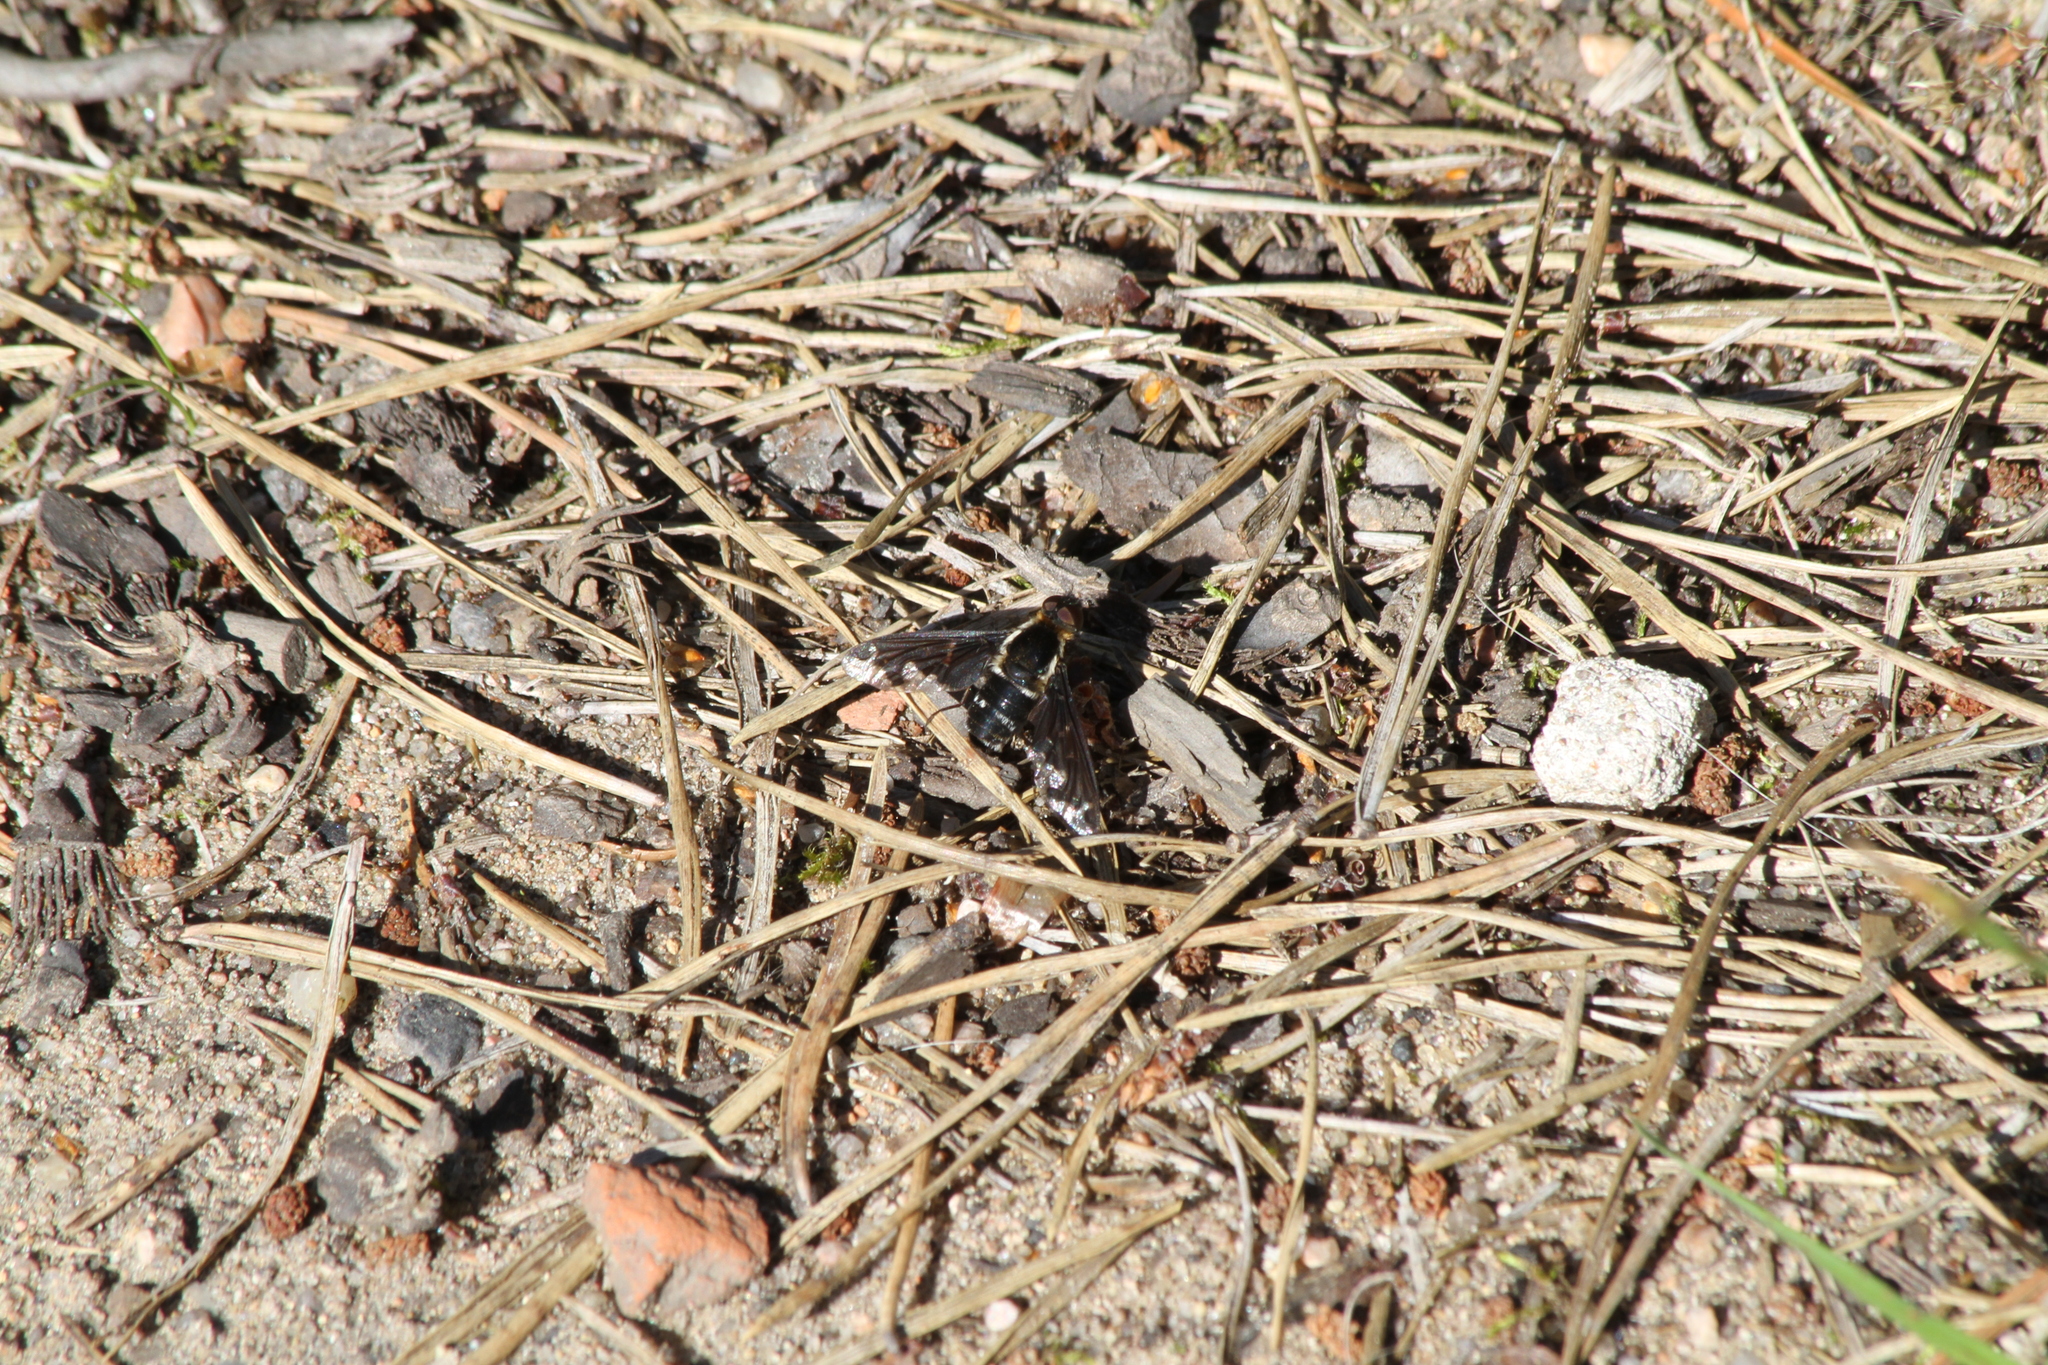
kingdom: Animalia
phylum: Arthropoda
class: Insecta
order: Diptera
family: Bombyliidae
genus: Hemipenthes
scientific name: Hemipenthes maura
